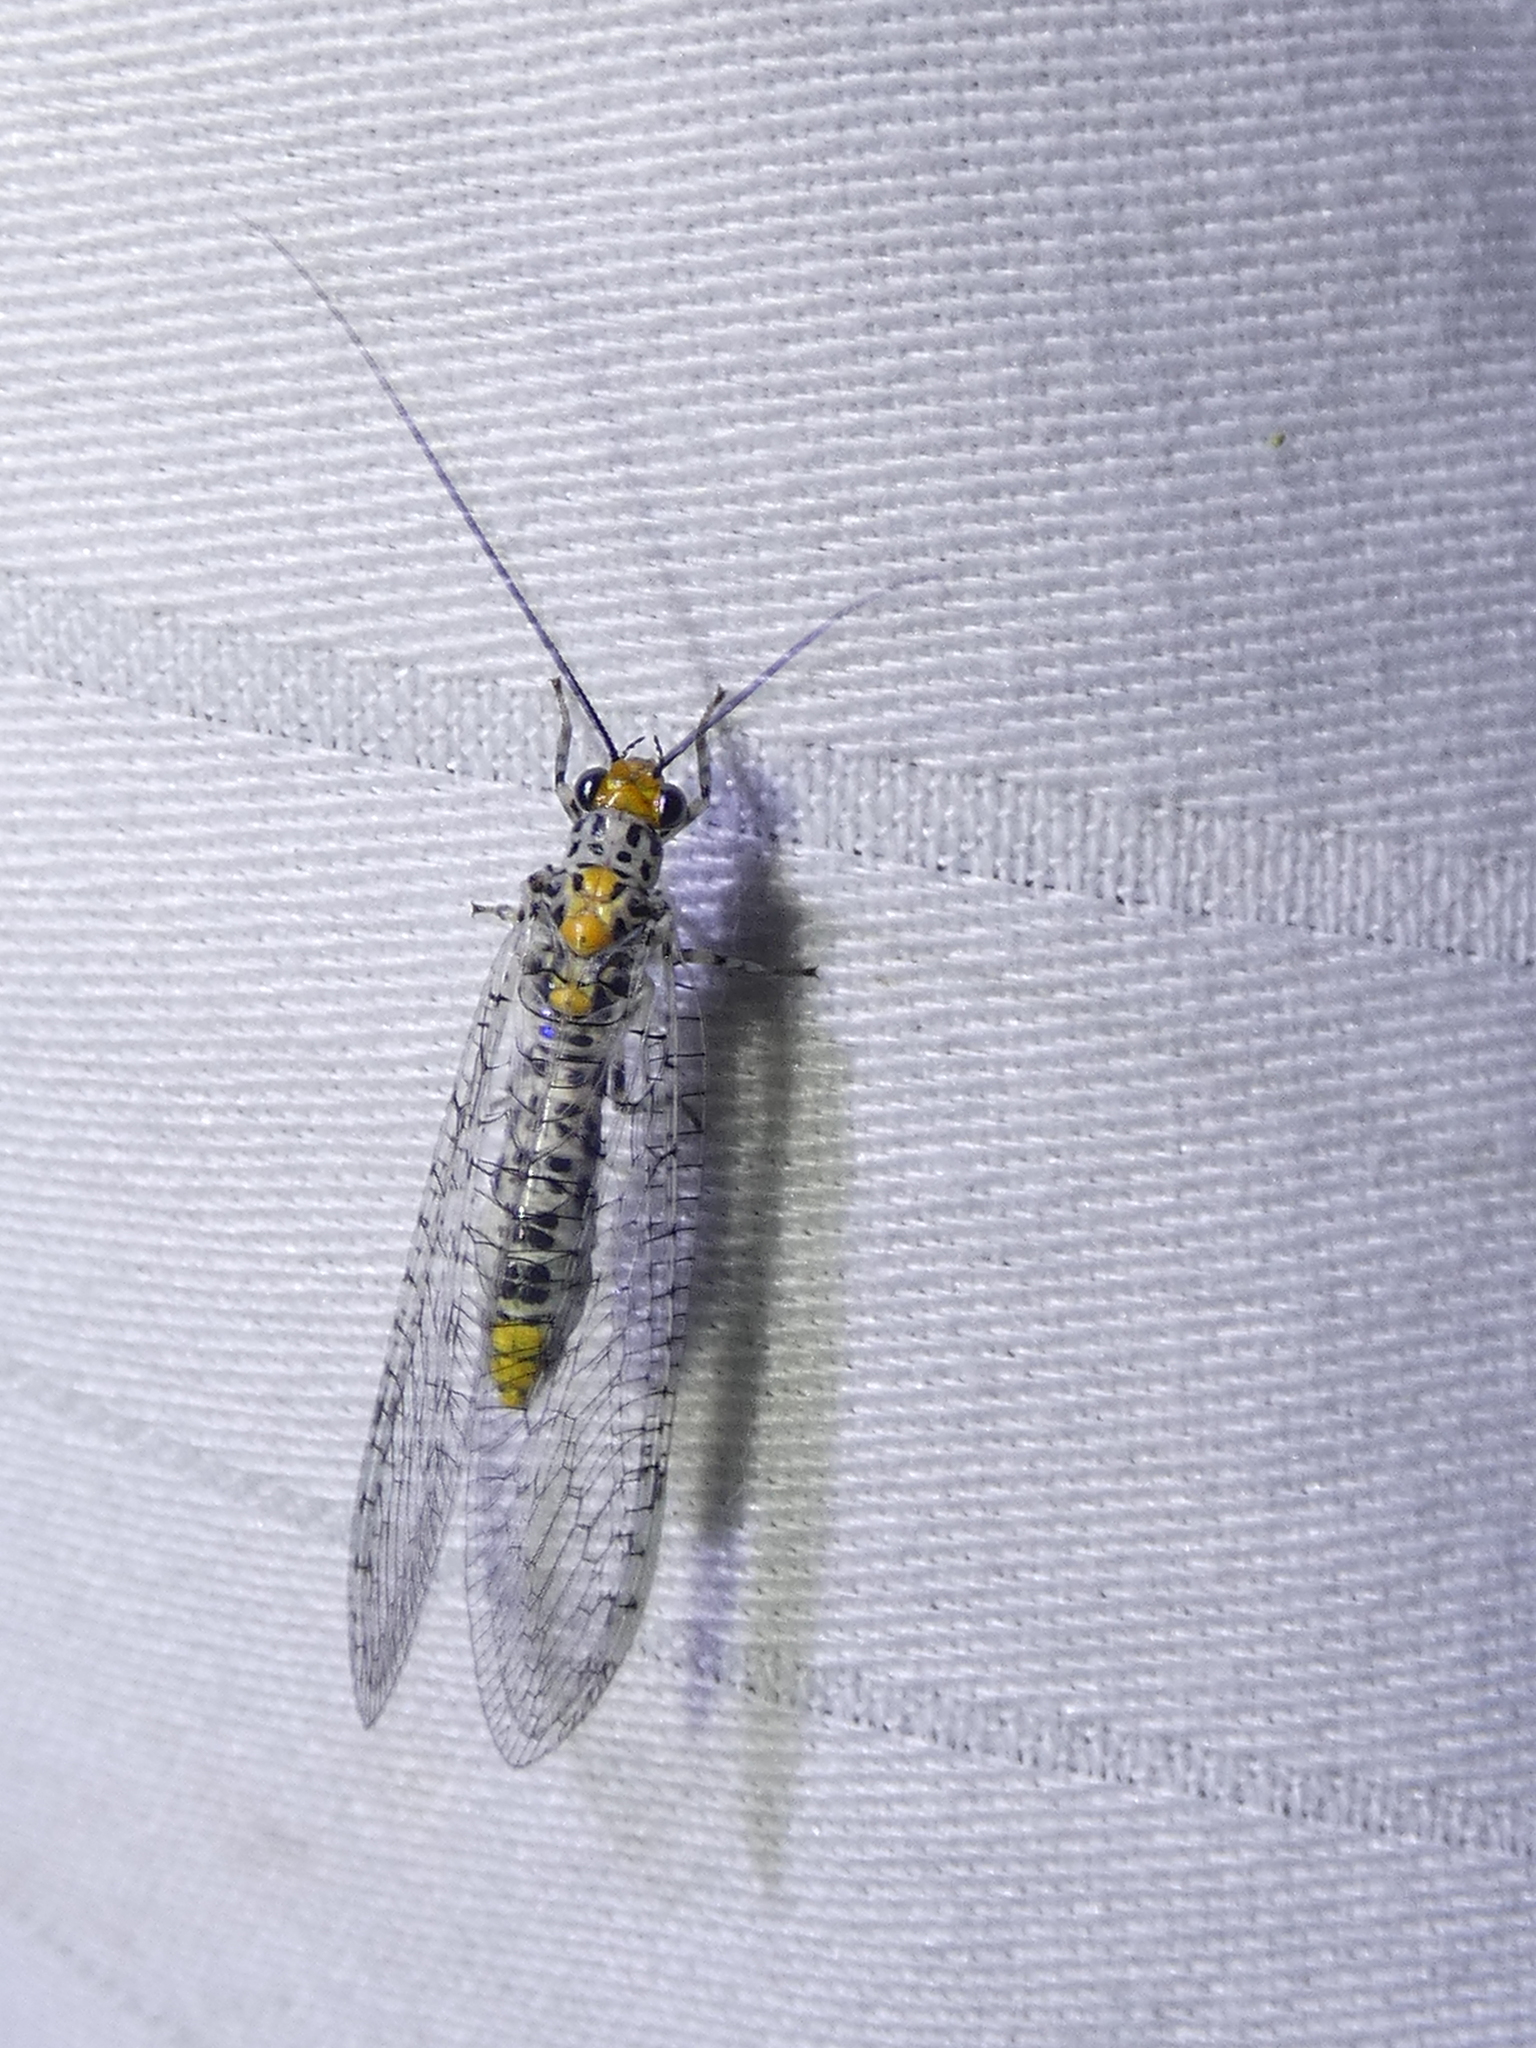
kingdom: Animalia
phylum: Arthropoda
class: Insecta
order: Neuroptera
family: Chrysopidae
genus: Abachrysa
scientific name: Abachrysa eureka
